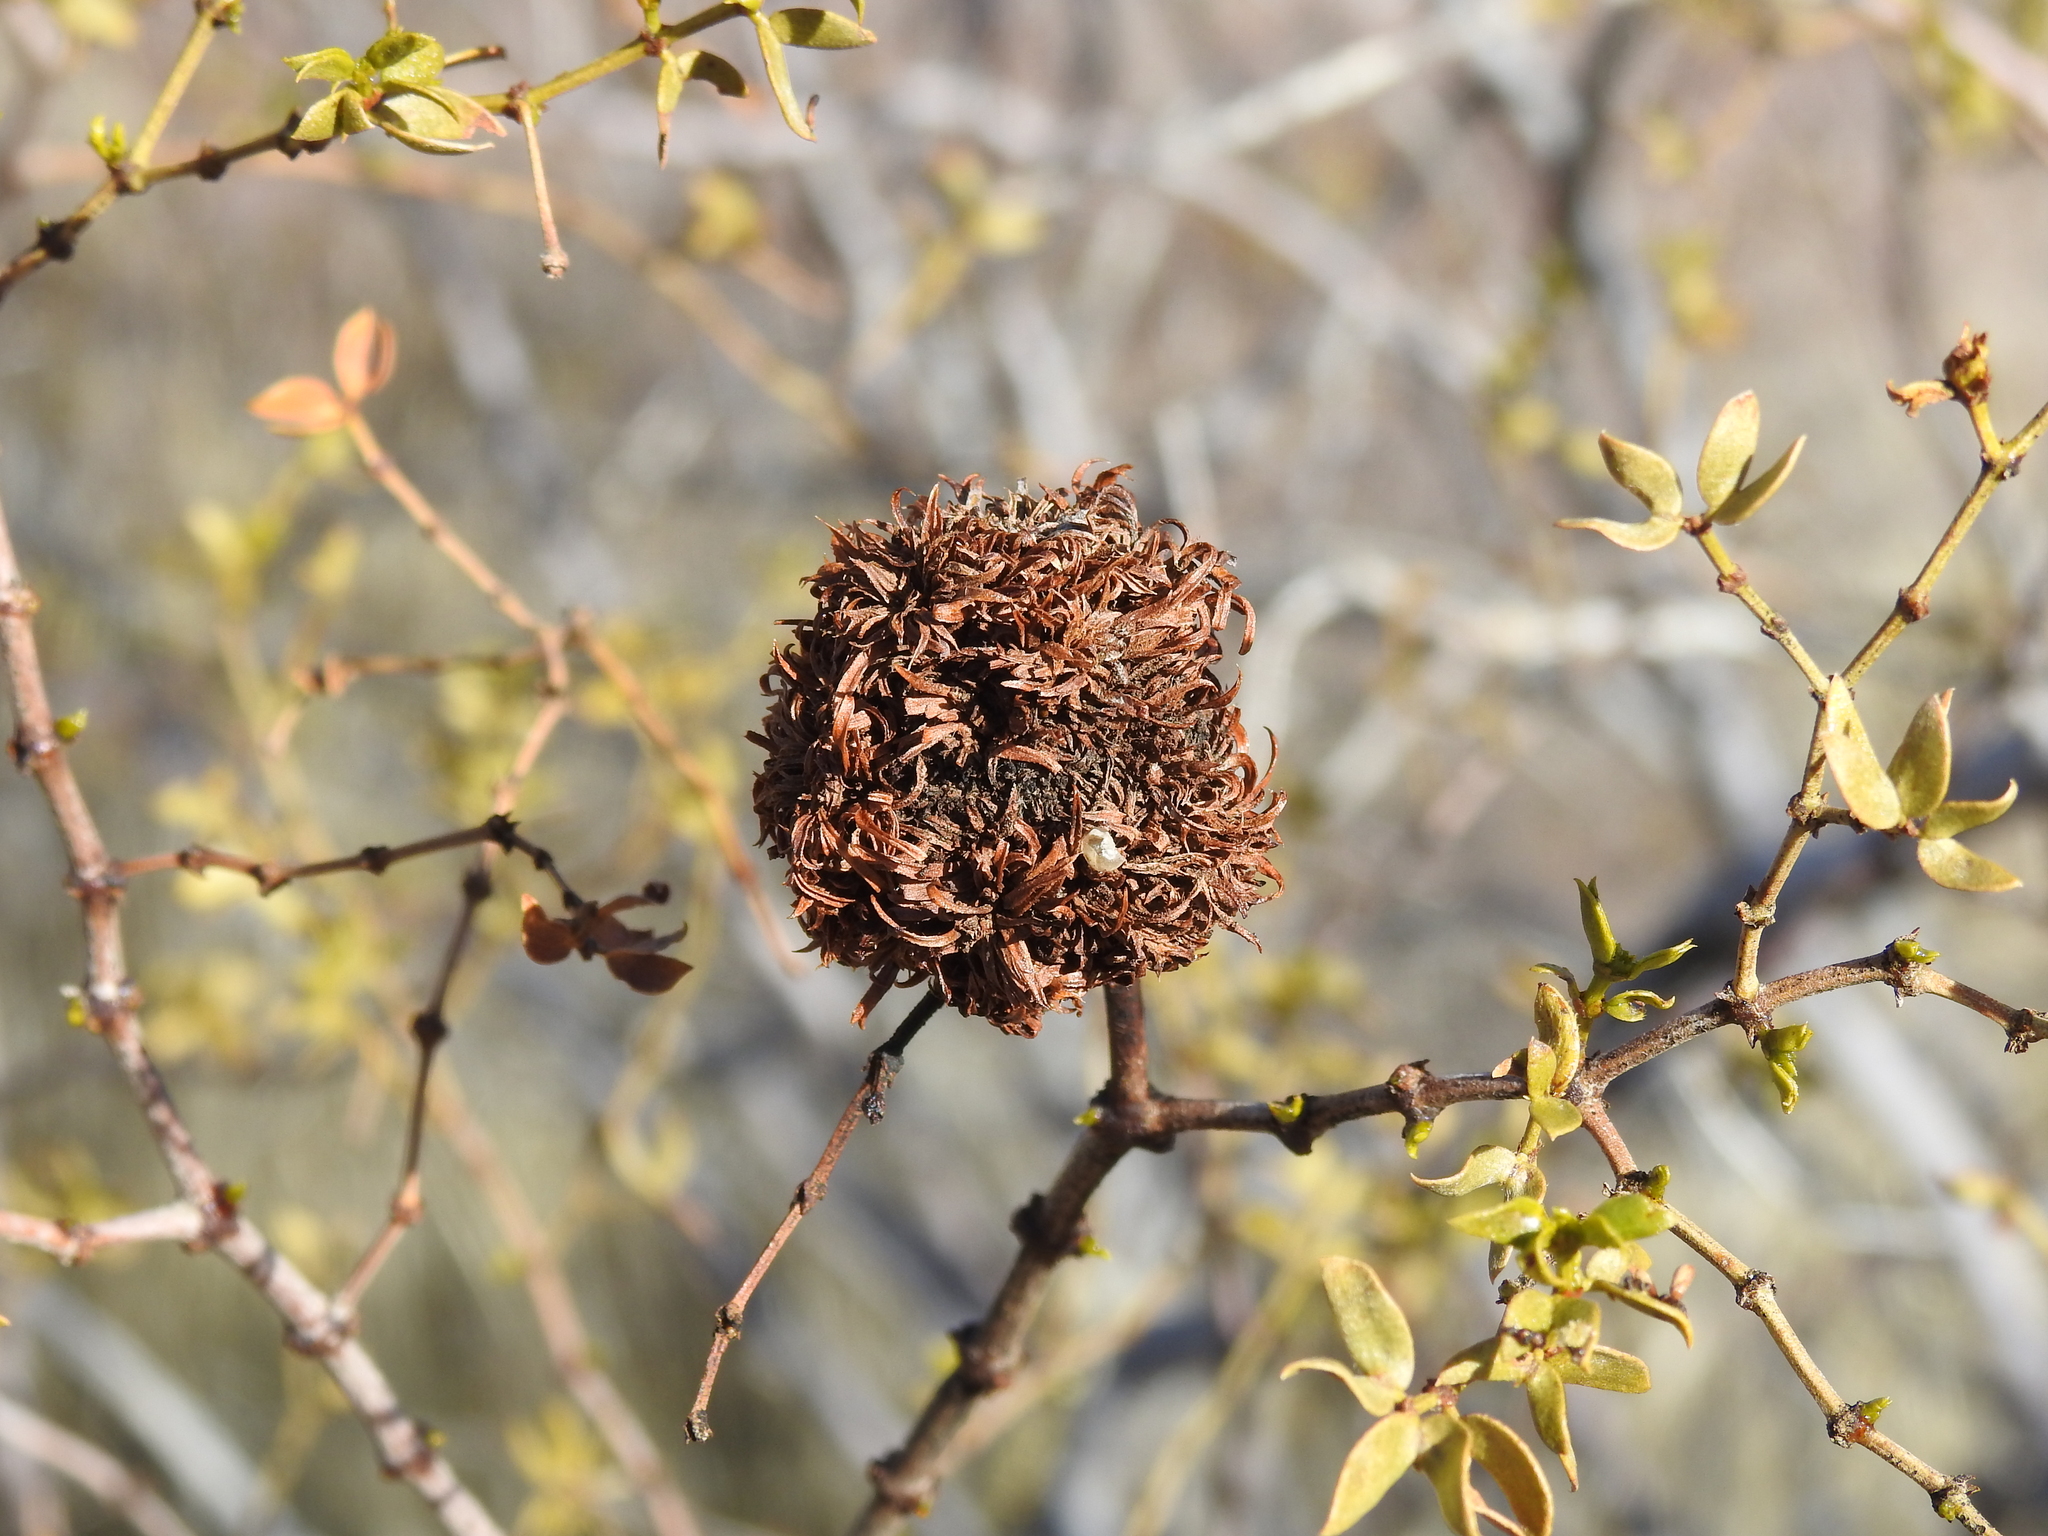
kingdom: Animalia
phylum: Arthropoda
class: Insecta
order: Diptera
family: Cecidomyiidae
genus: Asphondylia
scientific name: Asphondylia auripila
